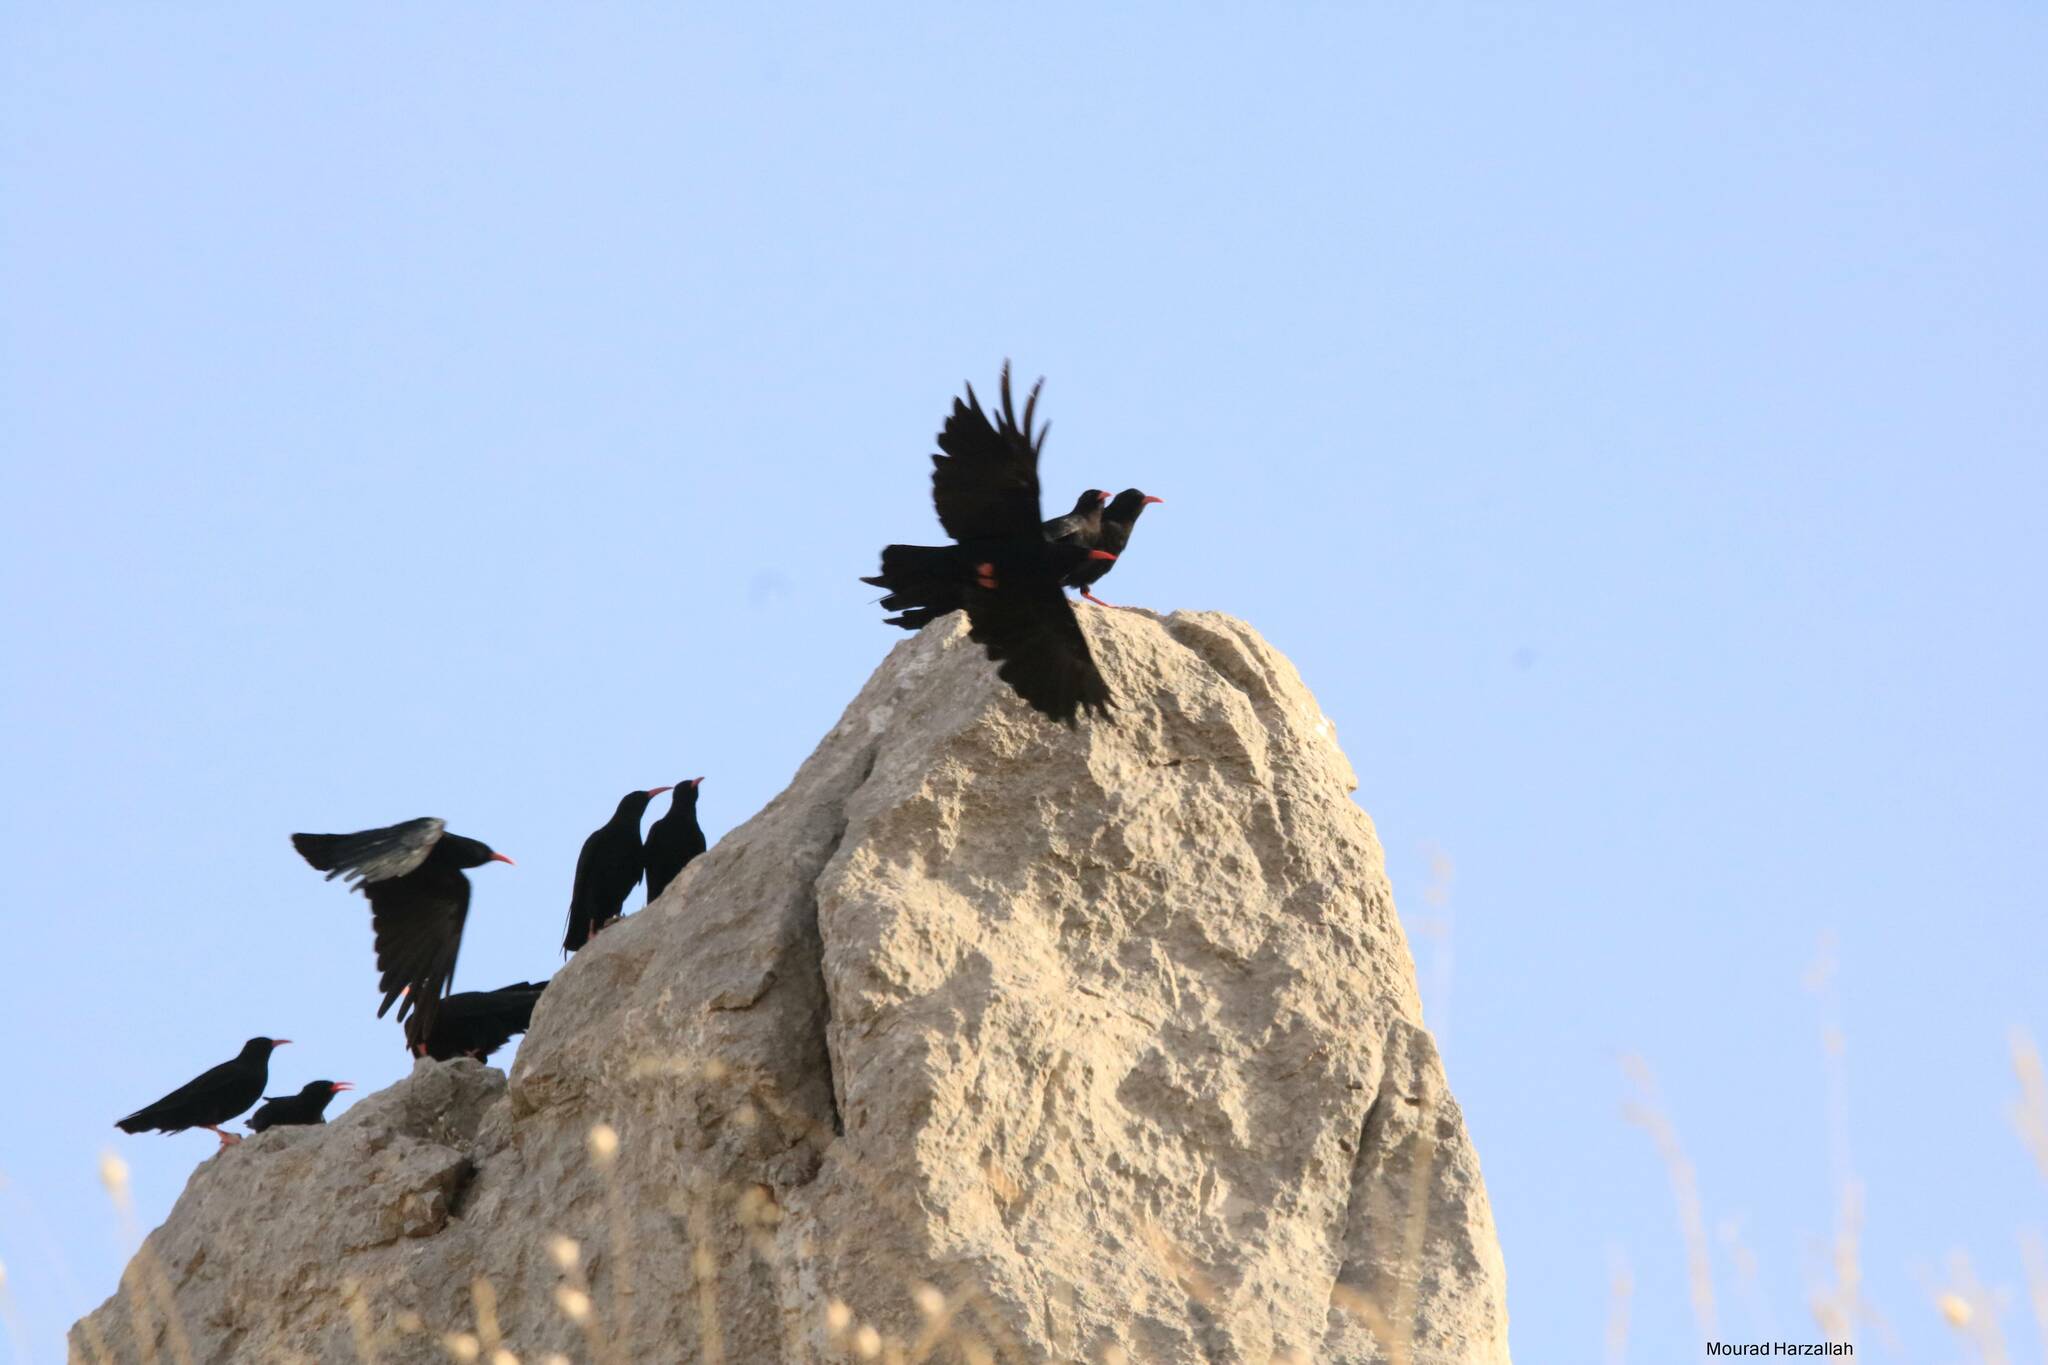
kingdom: Animalia
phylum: Chordata
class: Aves
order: Passeriformes
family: Corvidae
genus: Pyrrhocorax
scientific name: Pyrrhocorax pyrrhocorax
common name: Red-billed chough
